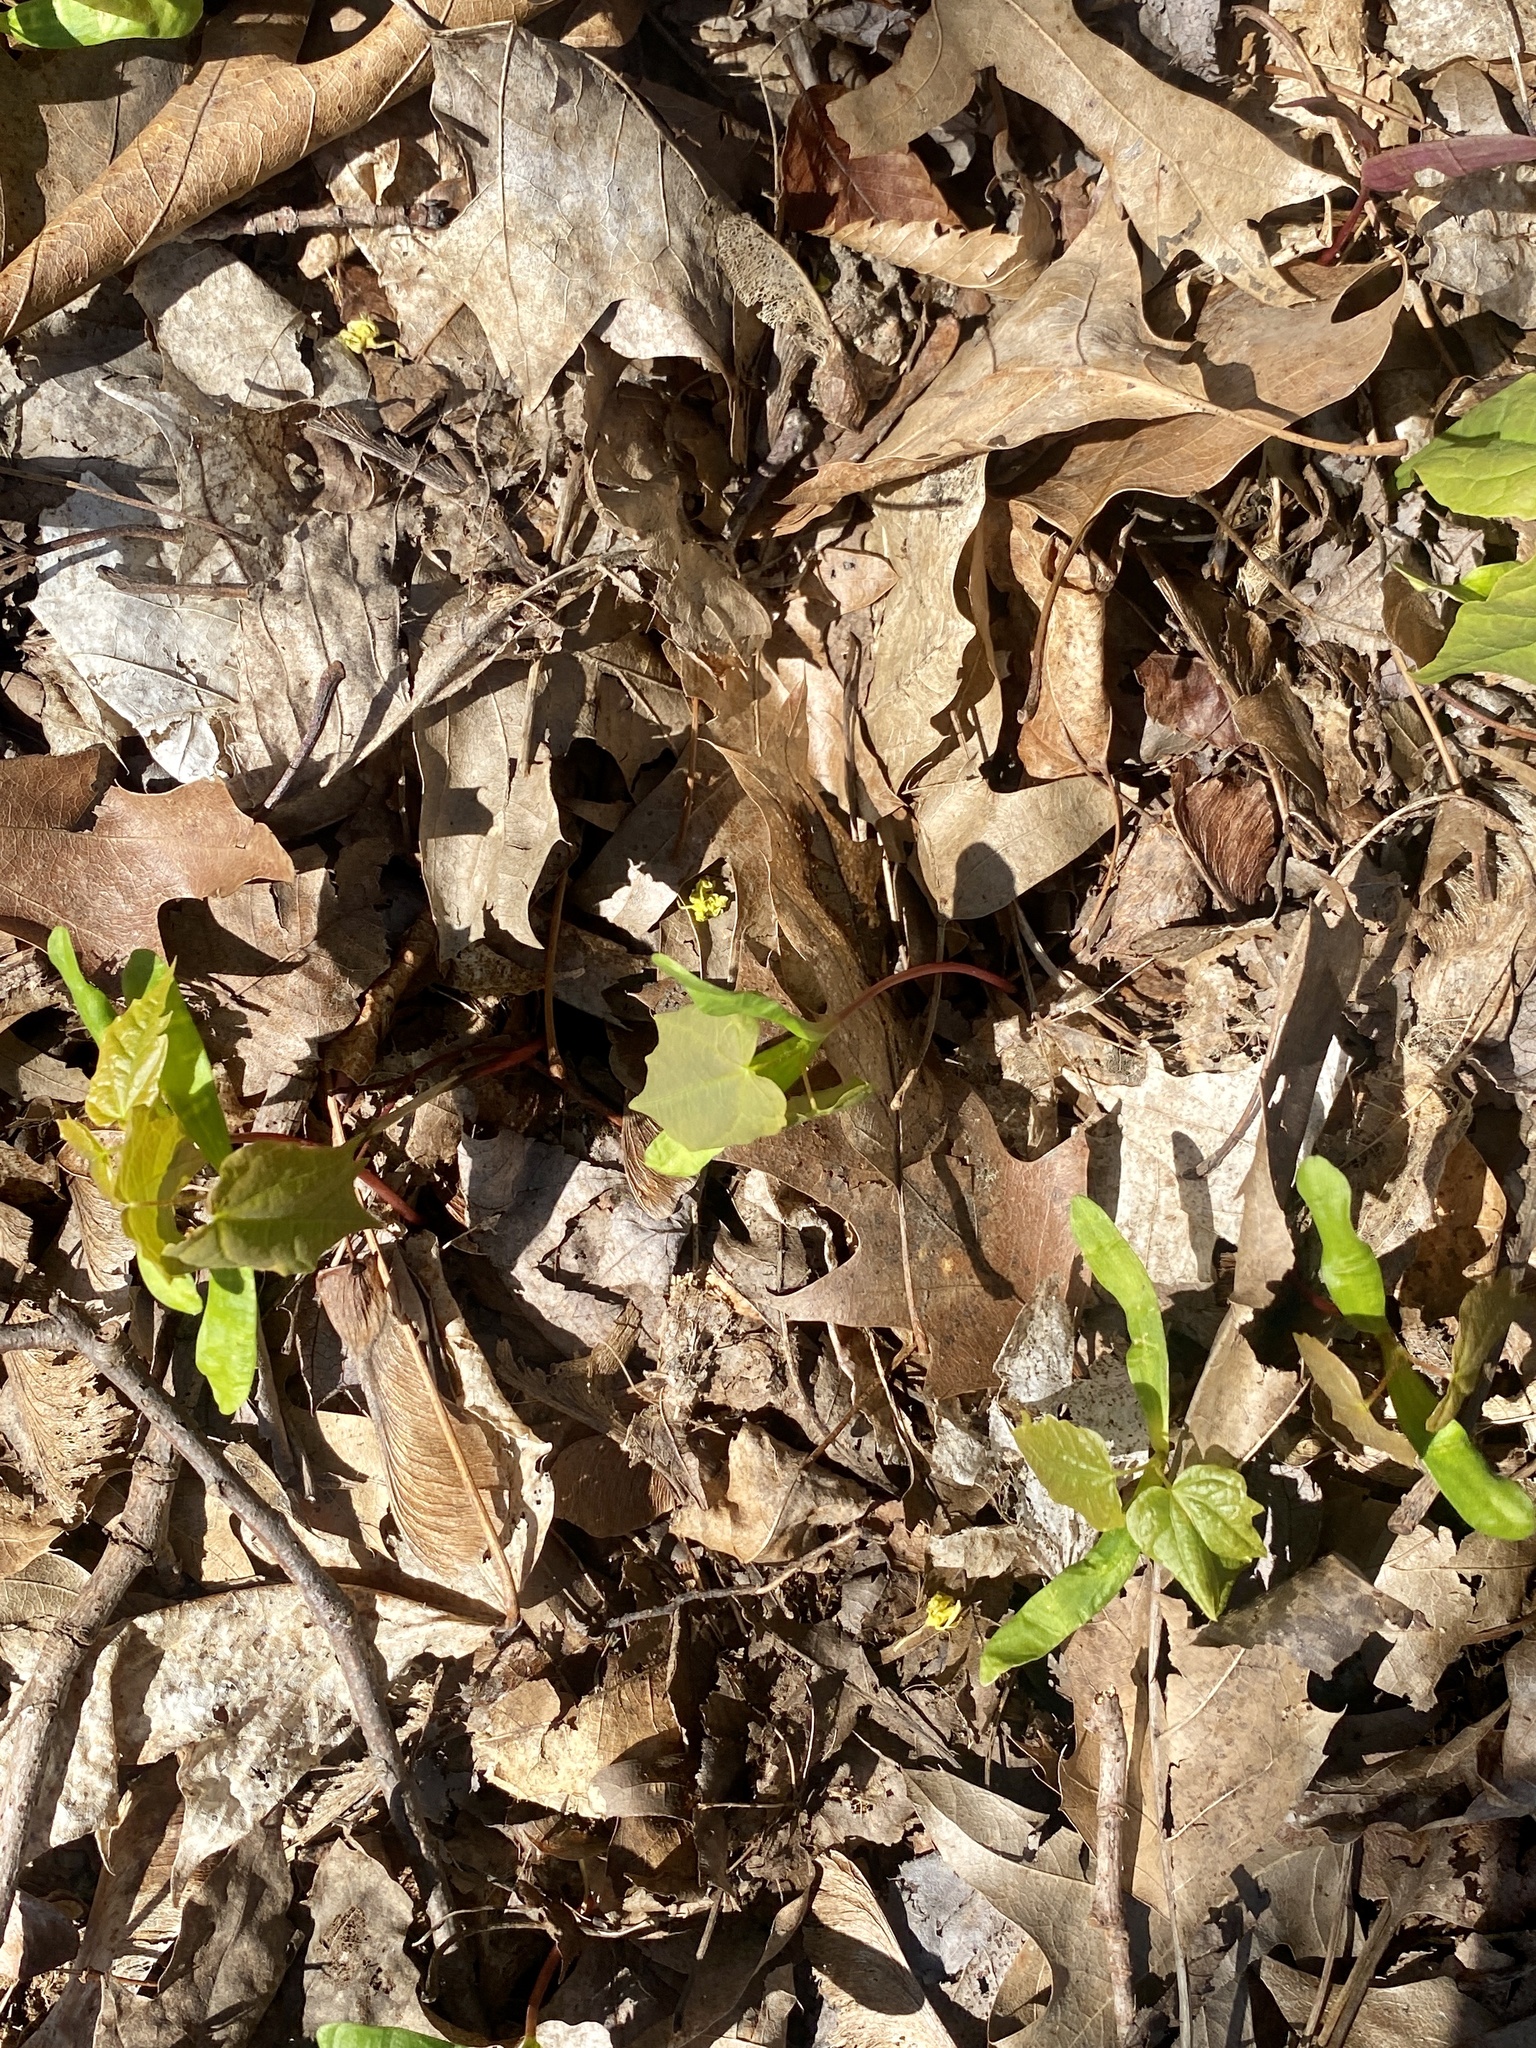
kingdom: Plantae
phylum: Tracheophyta
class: Magnoliopsida
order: Sapindales
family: Sapindaceae
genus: Acer
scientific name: Acer platanoides
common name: Norway maple
